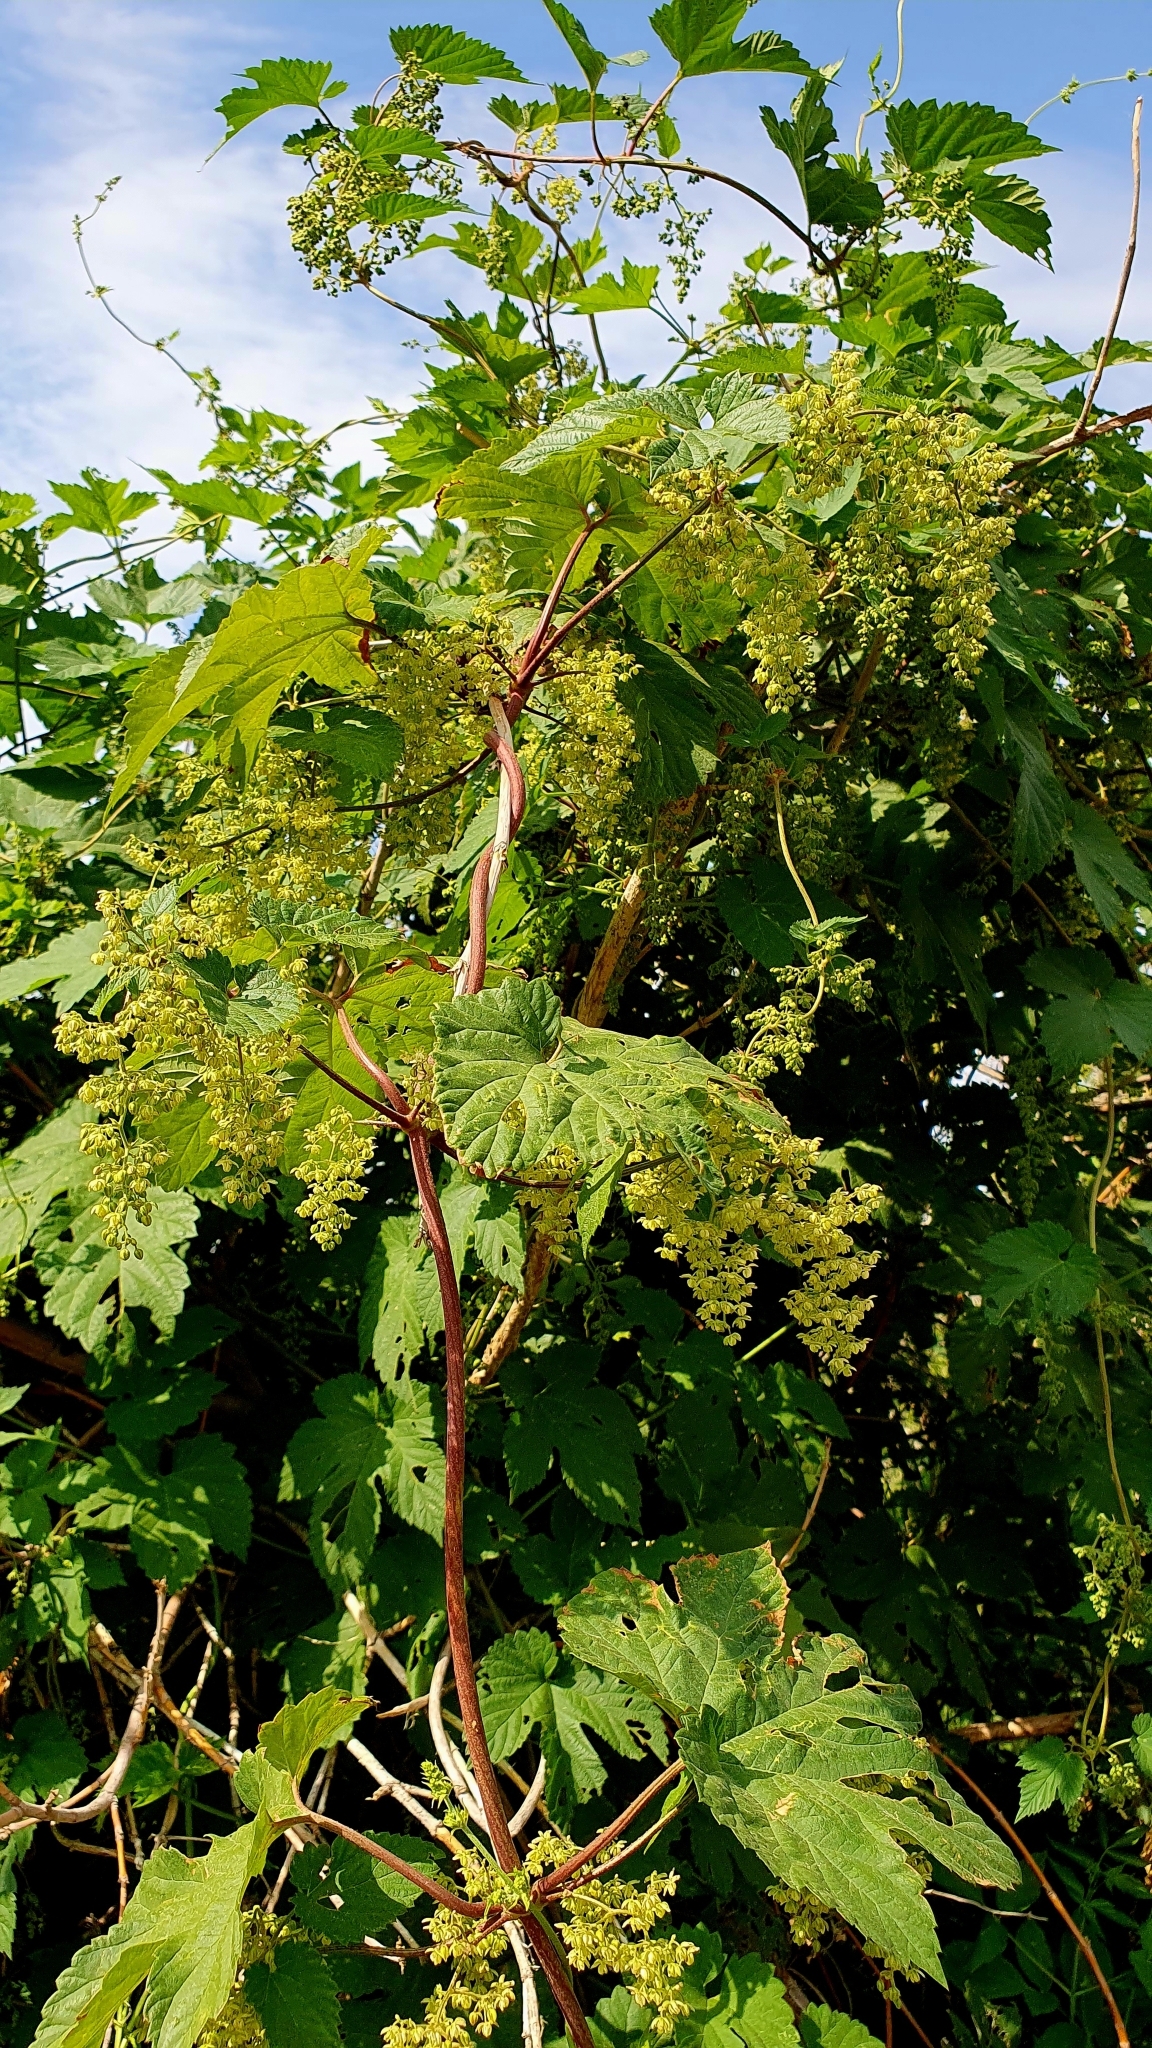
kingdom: Plantae
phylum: Tracheophyta
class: Magnoliopsida
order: Rosales
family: Cannabaceae
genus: Humulus
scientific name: Humulus lupulus
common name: Hop
